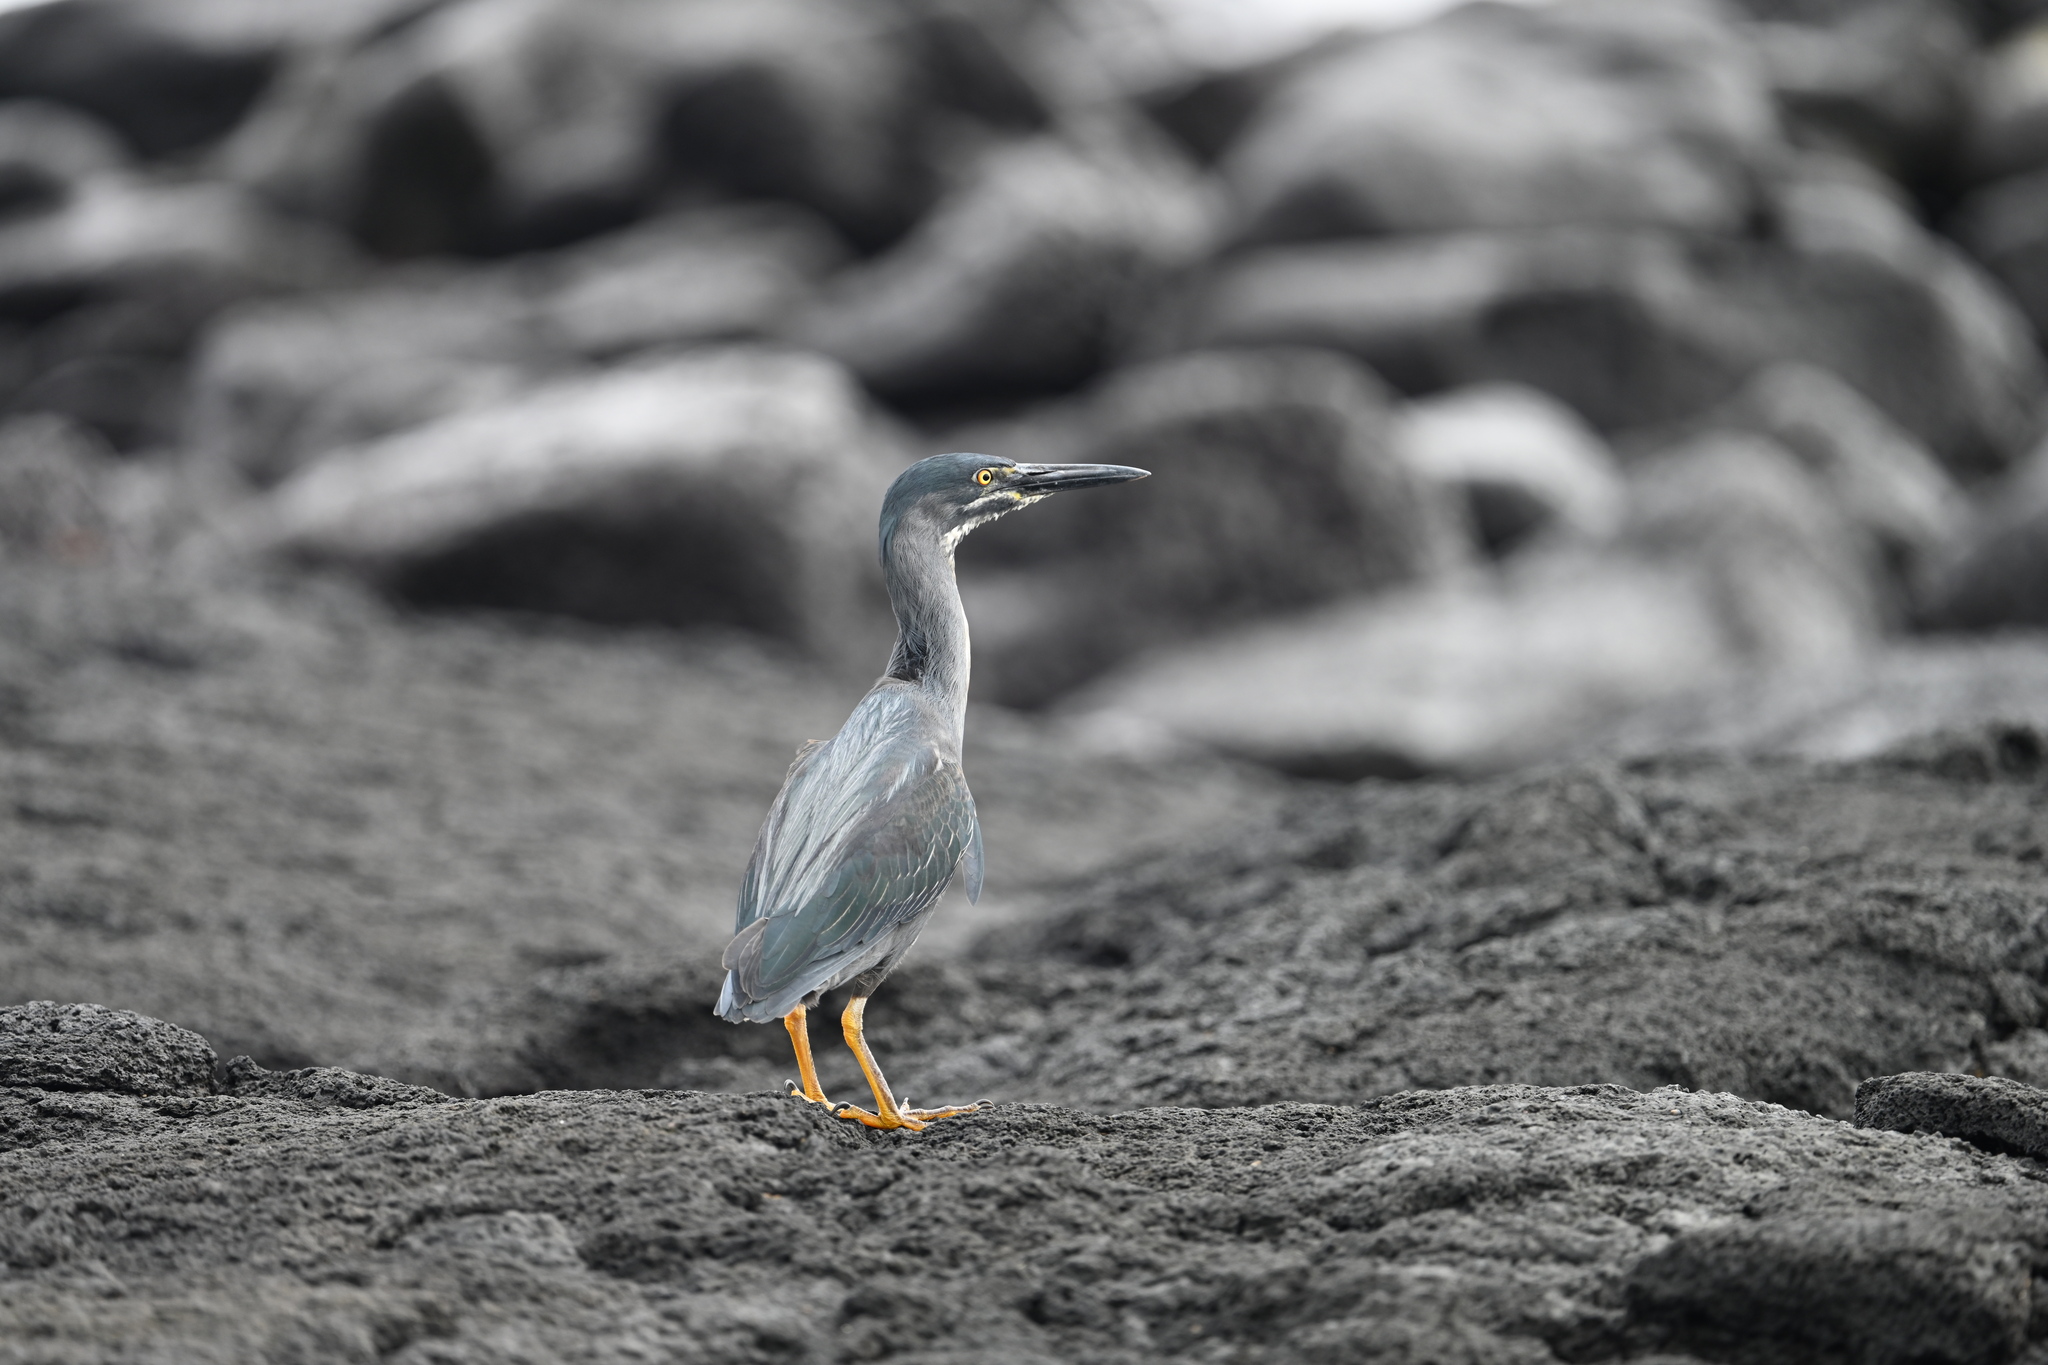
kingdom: Animalia
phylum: Chordata
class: Aves
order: Pelecaniformes
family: Ardeidae
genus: Butorides
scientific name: Butorides striata
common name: Striated heron
